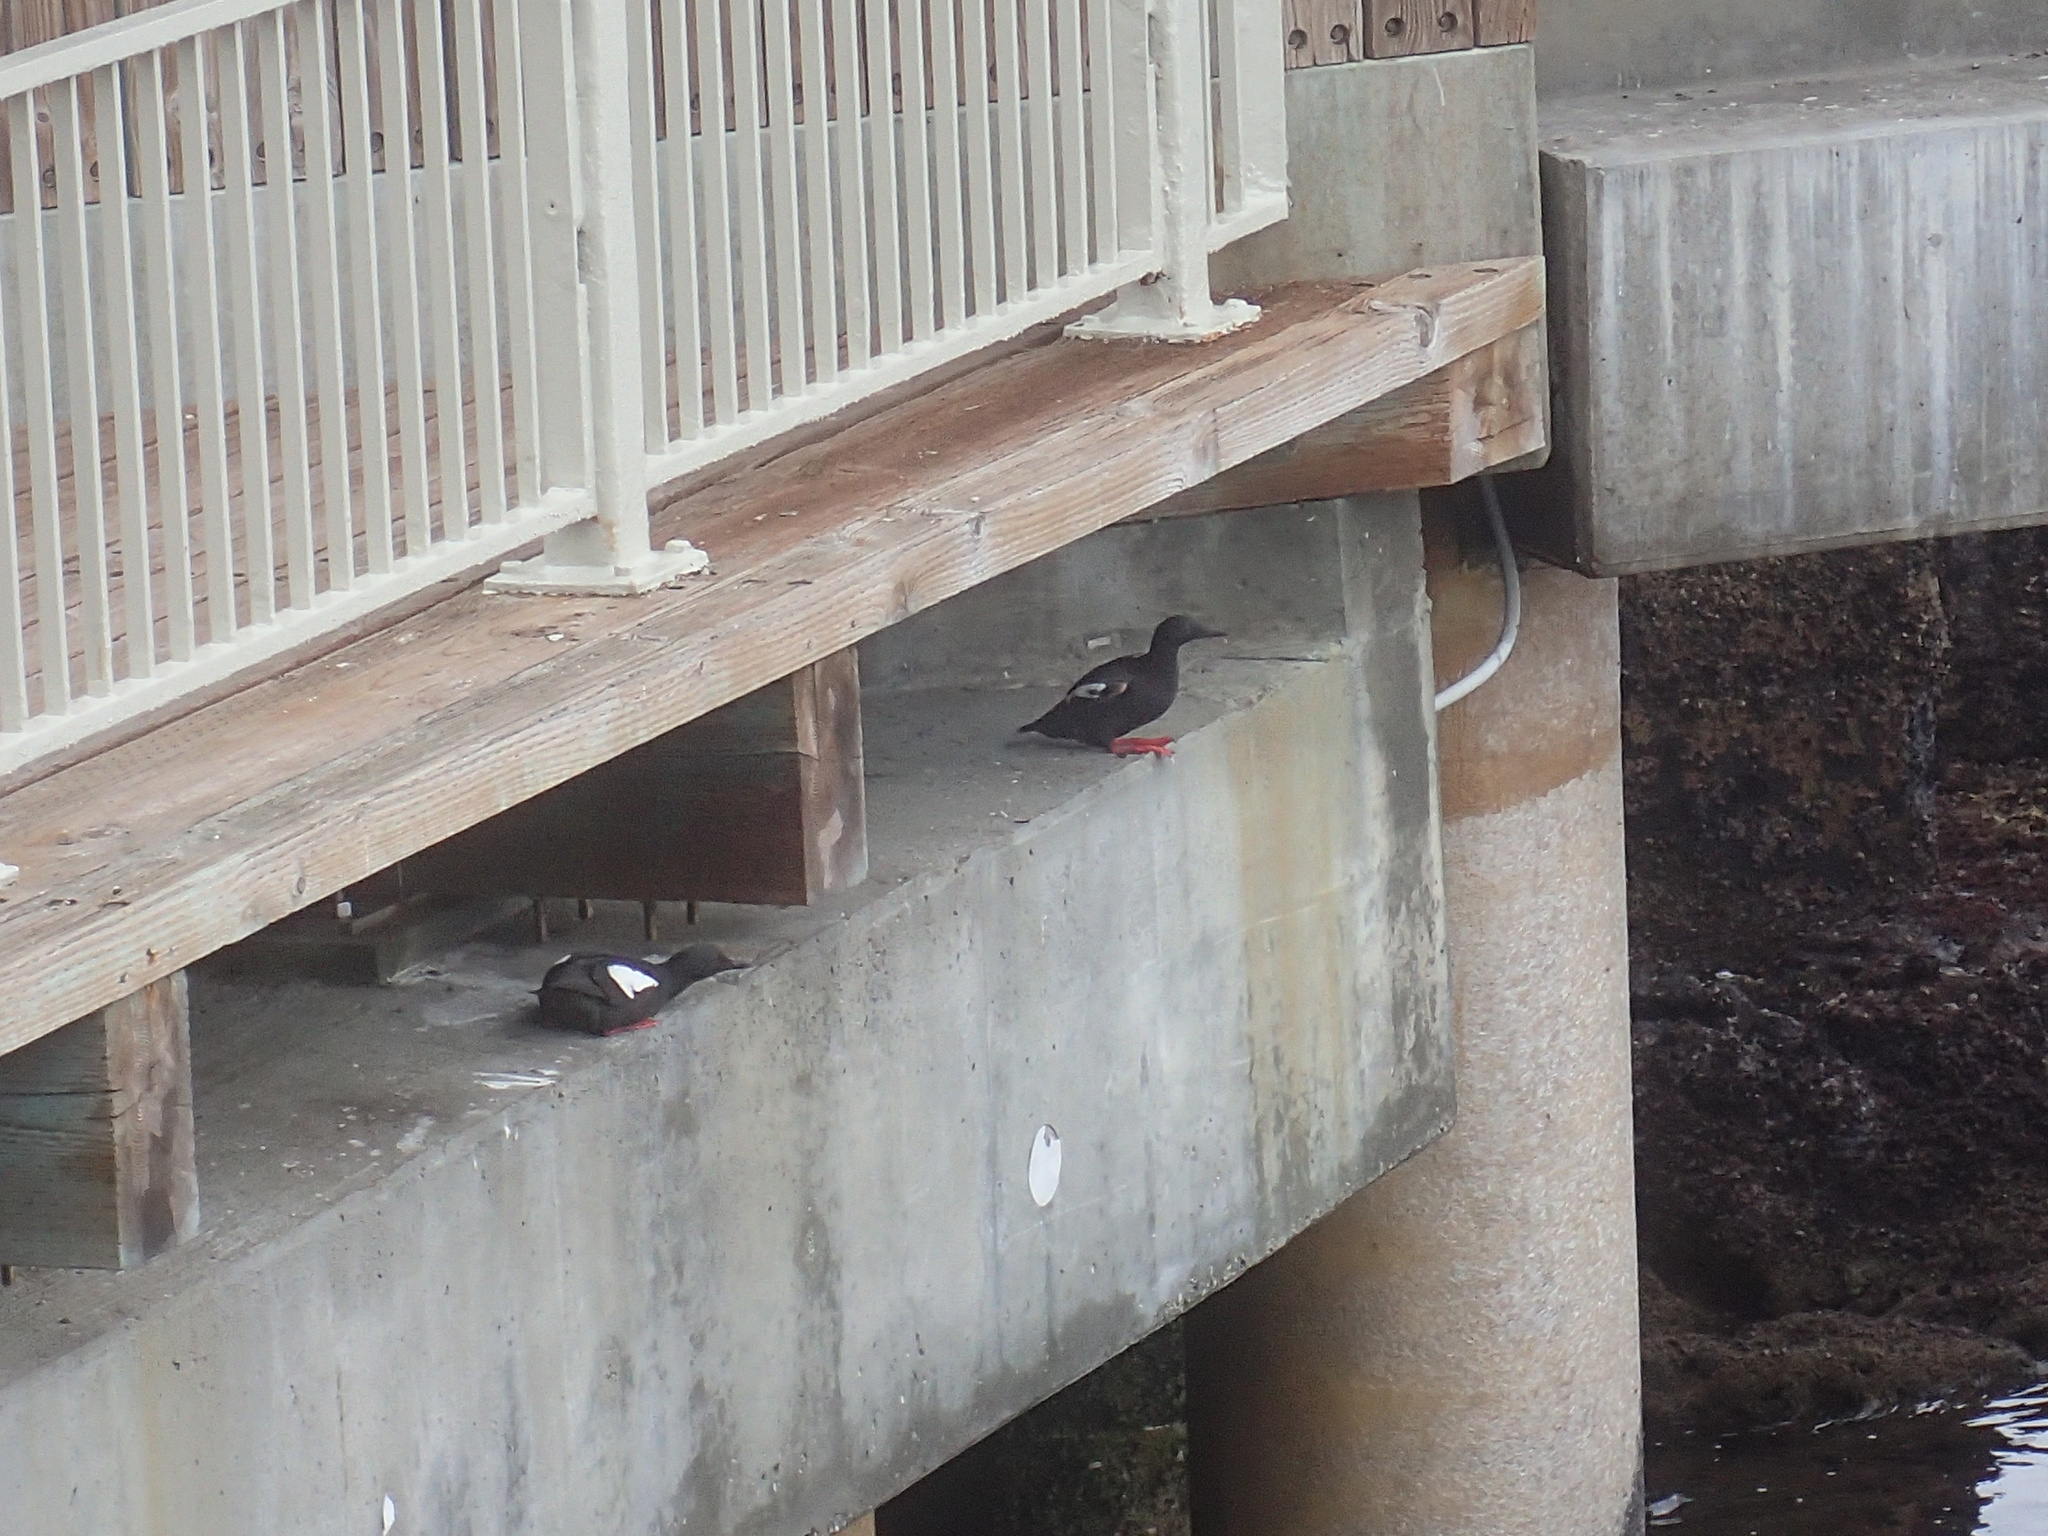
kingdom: Animalia
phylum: Chordata
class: Aves
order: Charadriiformes
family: Alcidae
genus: Cepphus
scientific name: Cepphus columba
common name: Pigeon guillemot
